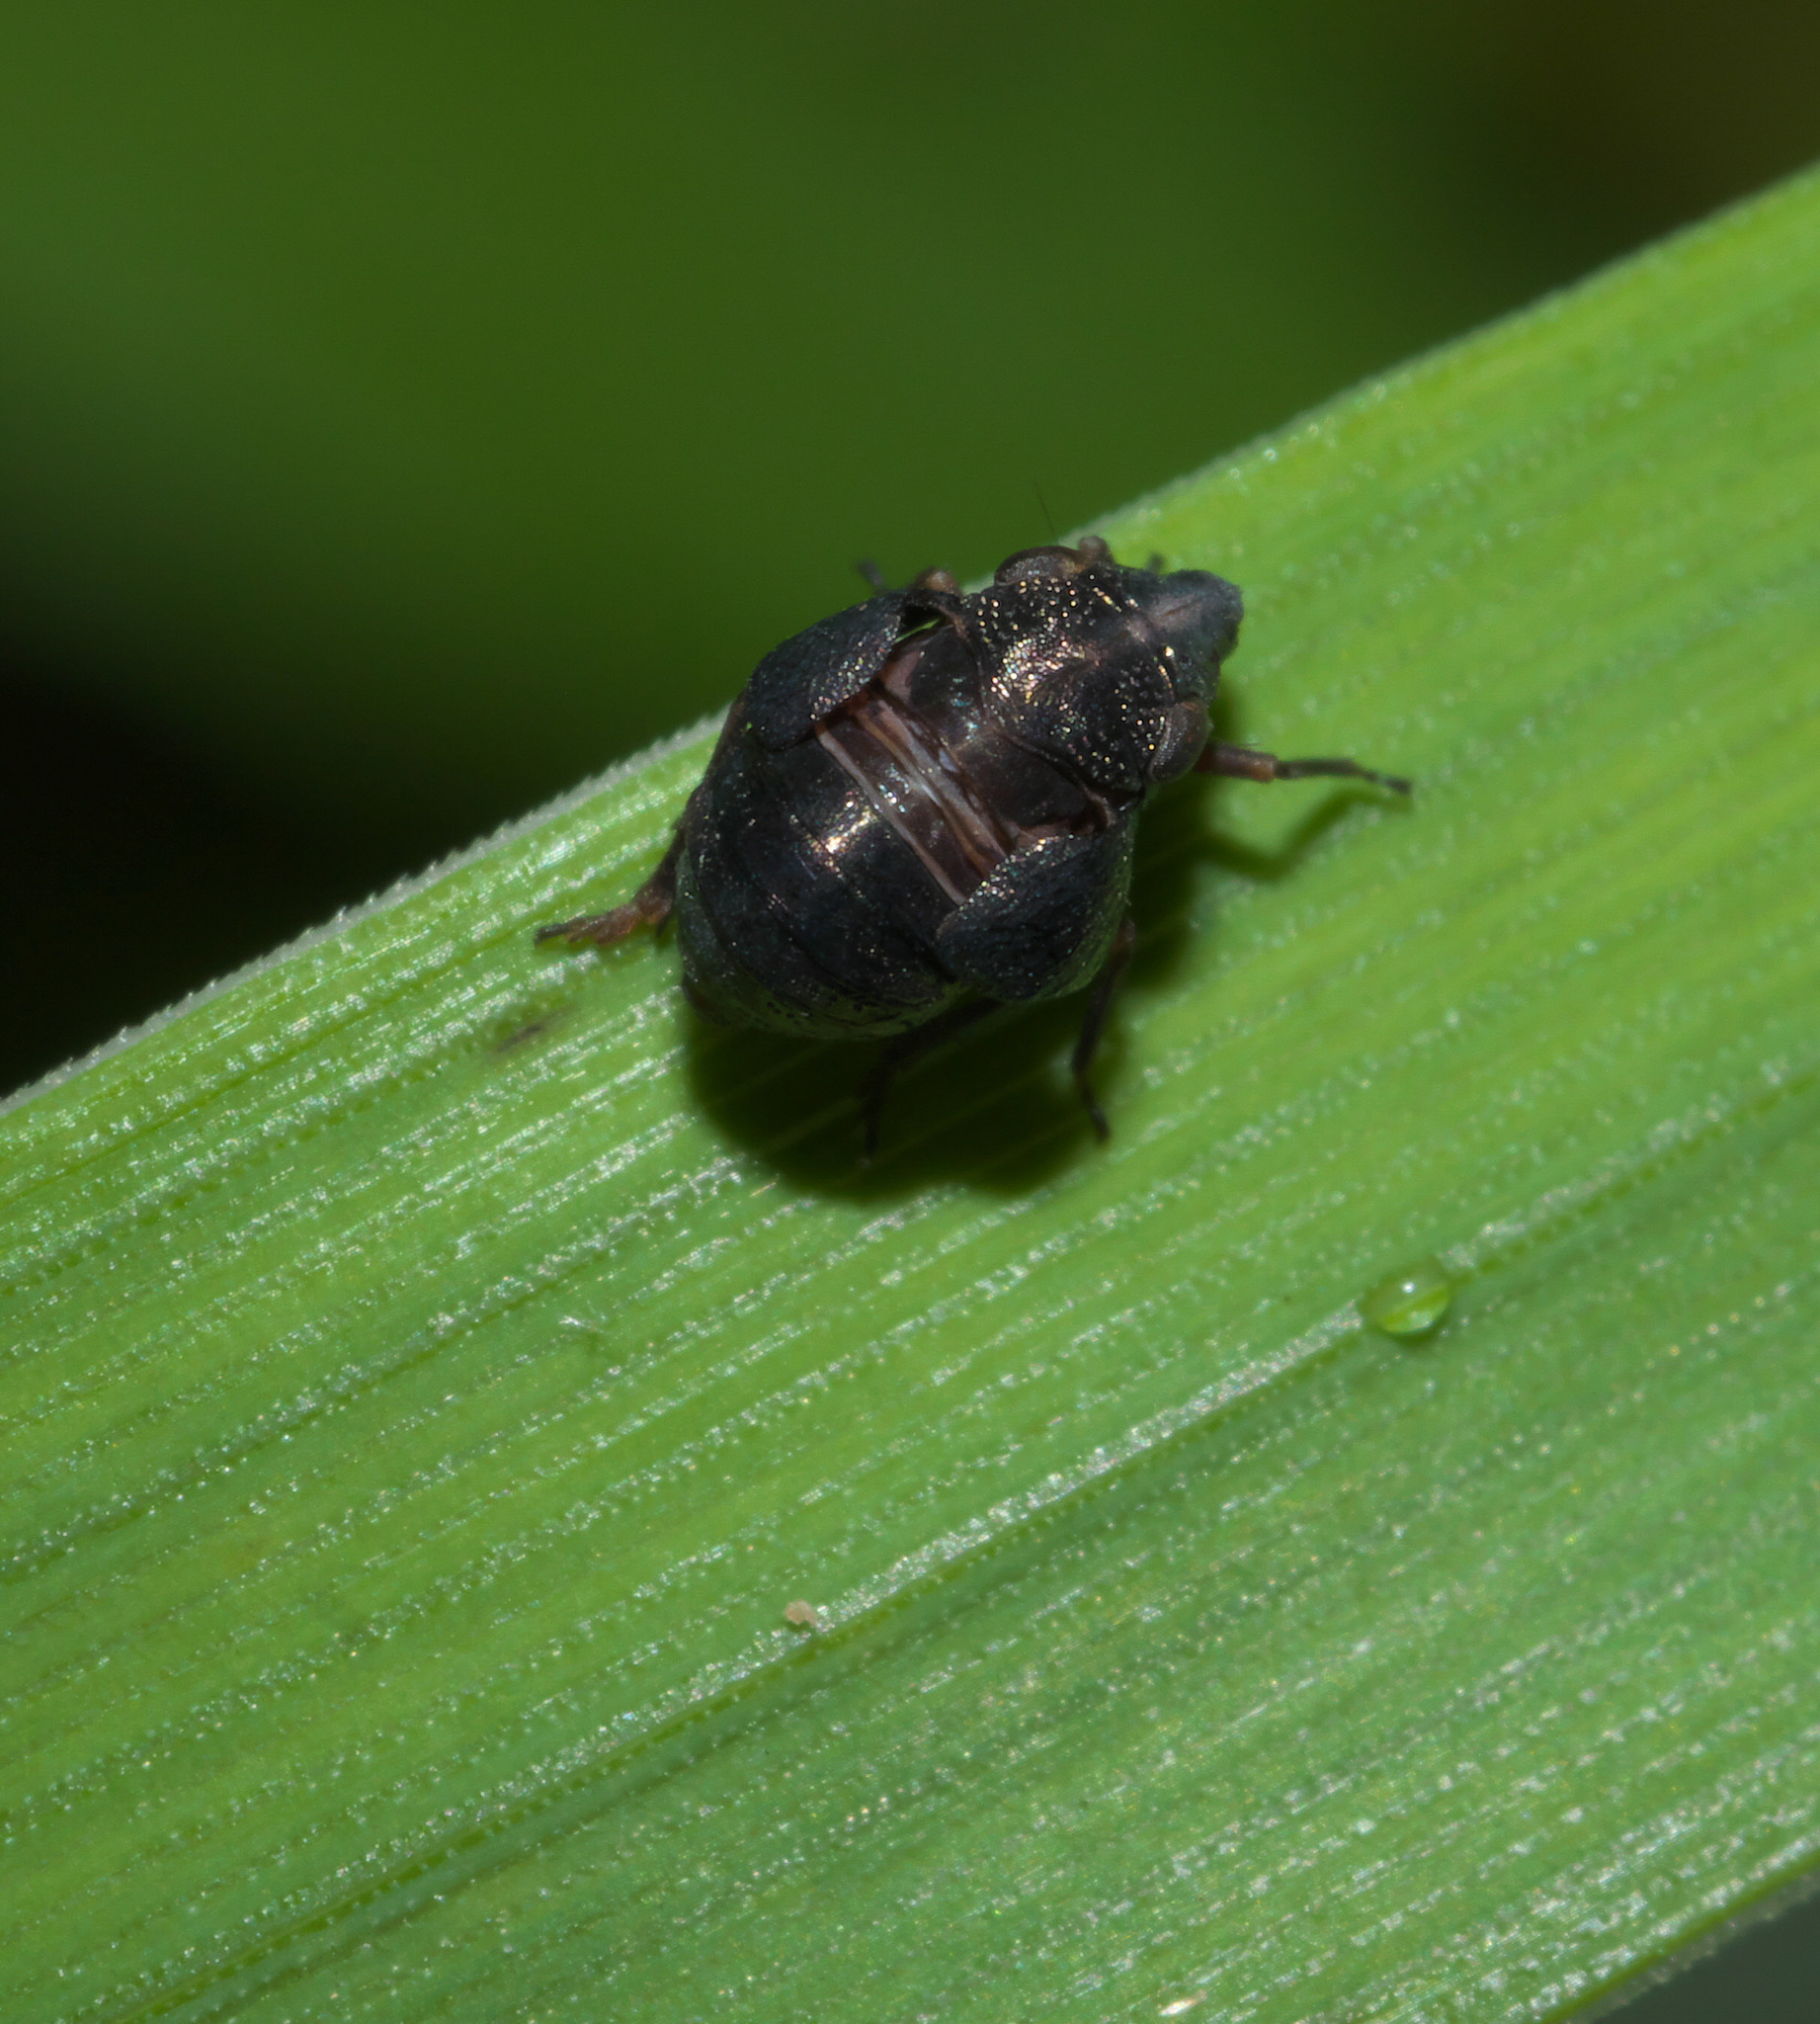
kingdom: Animalia
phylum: Arthropoda
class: Insecta
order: Hemiptera
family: Caliscelidae
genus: Bruchomorpha
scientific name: Bruchomorpha oculata
